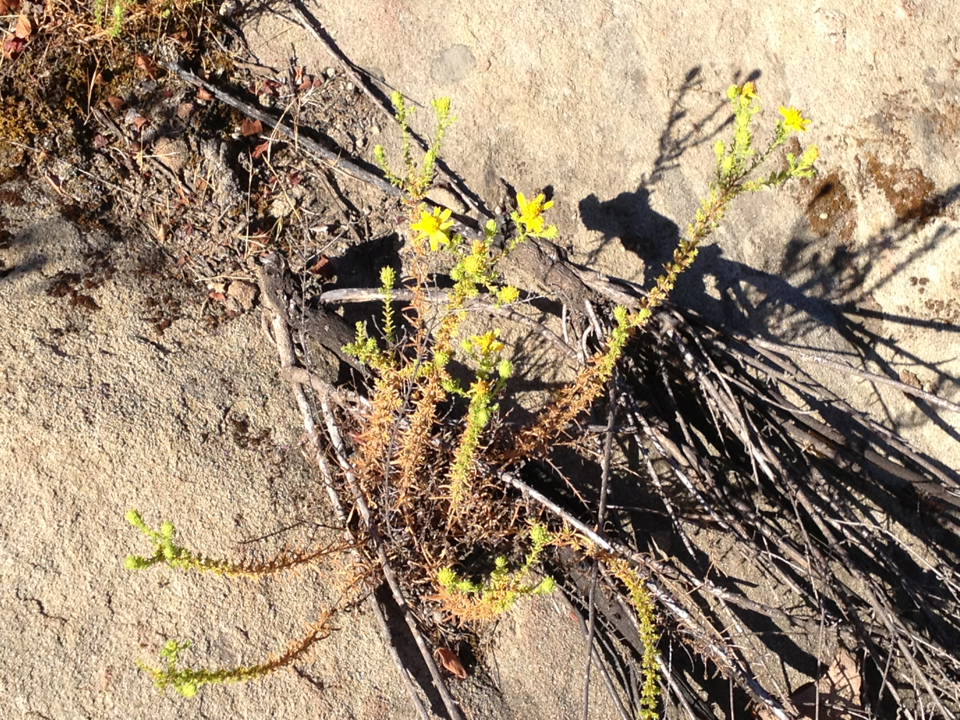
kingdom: Plantae
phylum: Tracheophyta
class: Magnoliopsida
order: Asterales
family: Asteraceae
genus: Deinandra
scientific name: Deinandra minthornii
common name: Santa susana tarplant
